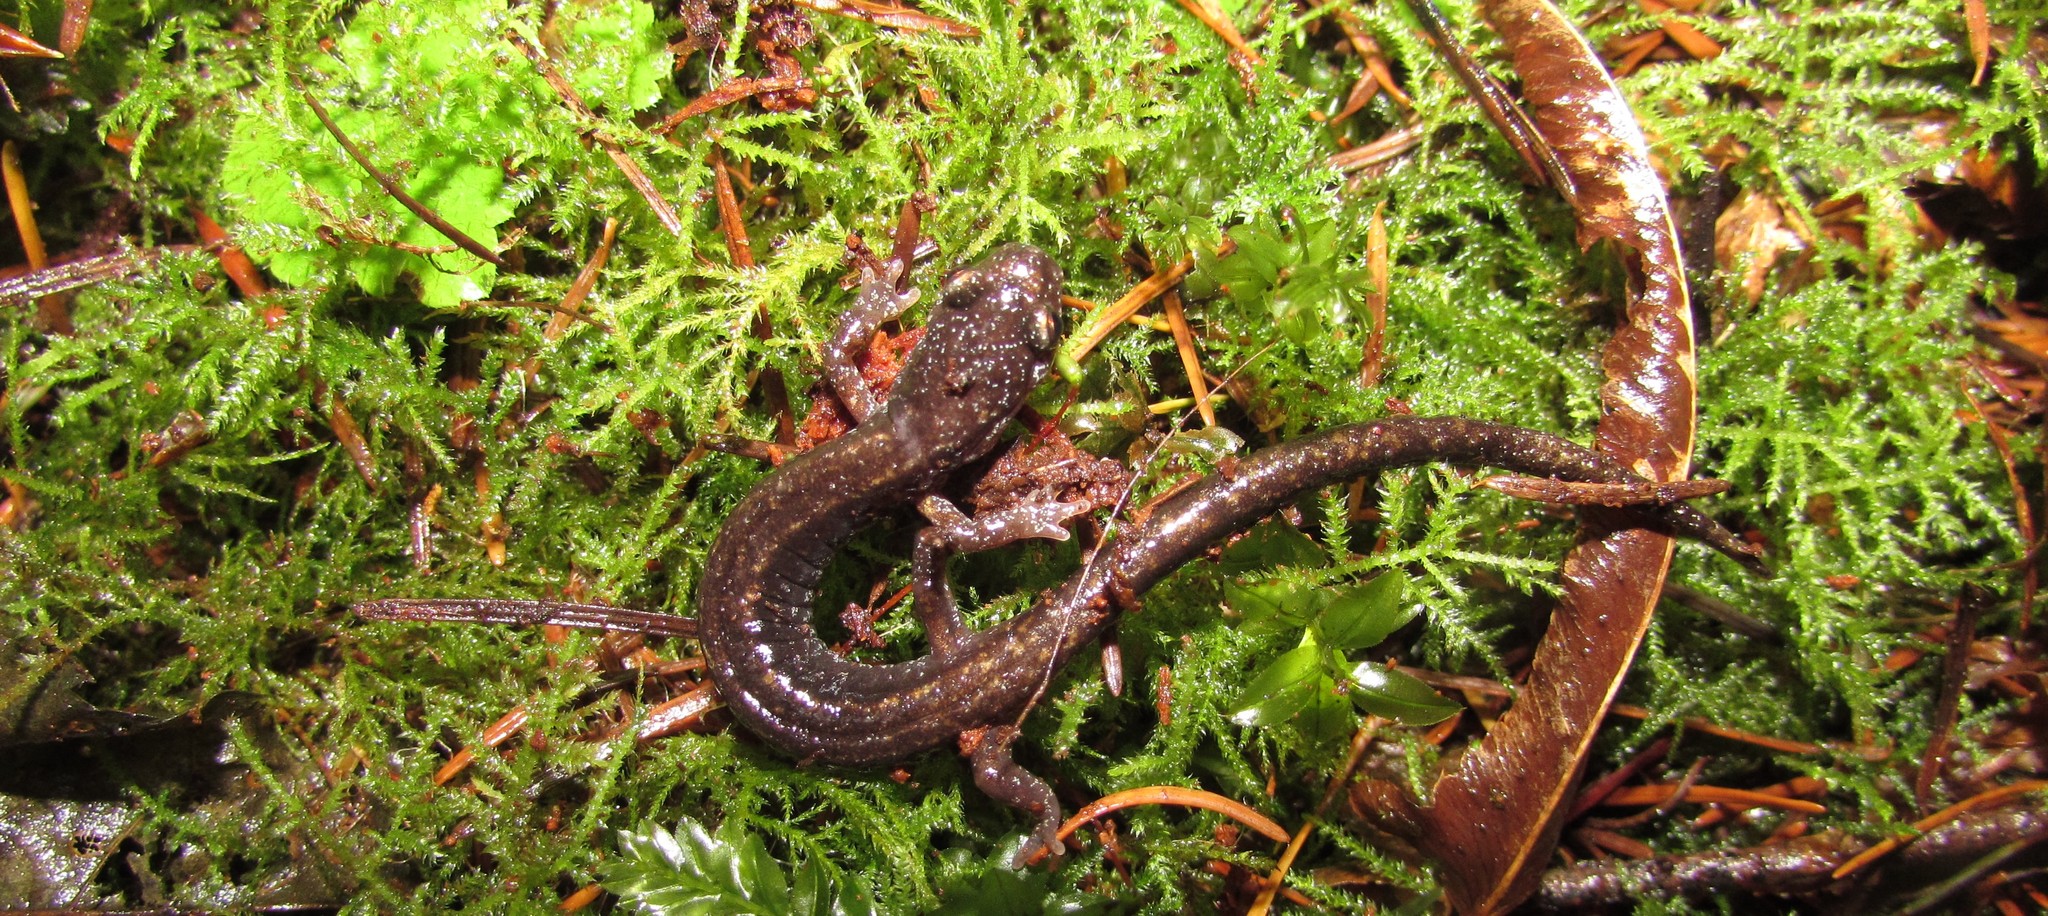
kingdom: Animalia
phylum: Chordata
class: Amphibia
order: Caudata
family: Plethodontidae
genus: Plethodon
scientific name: Plethodon dunni
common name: Dunn's salamander
